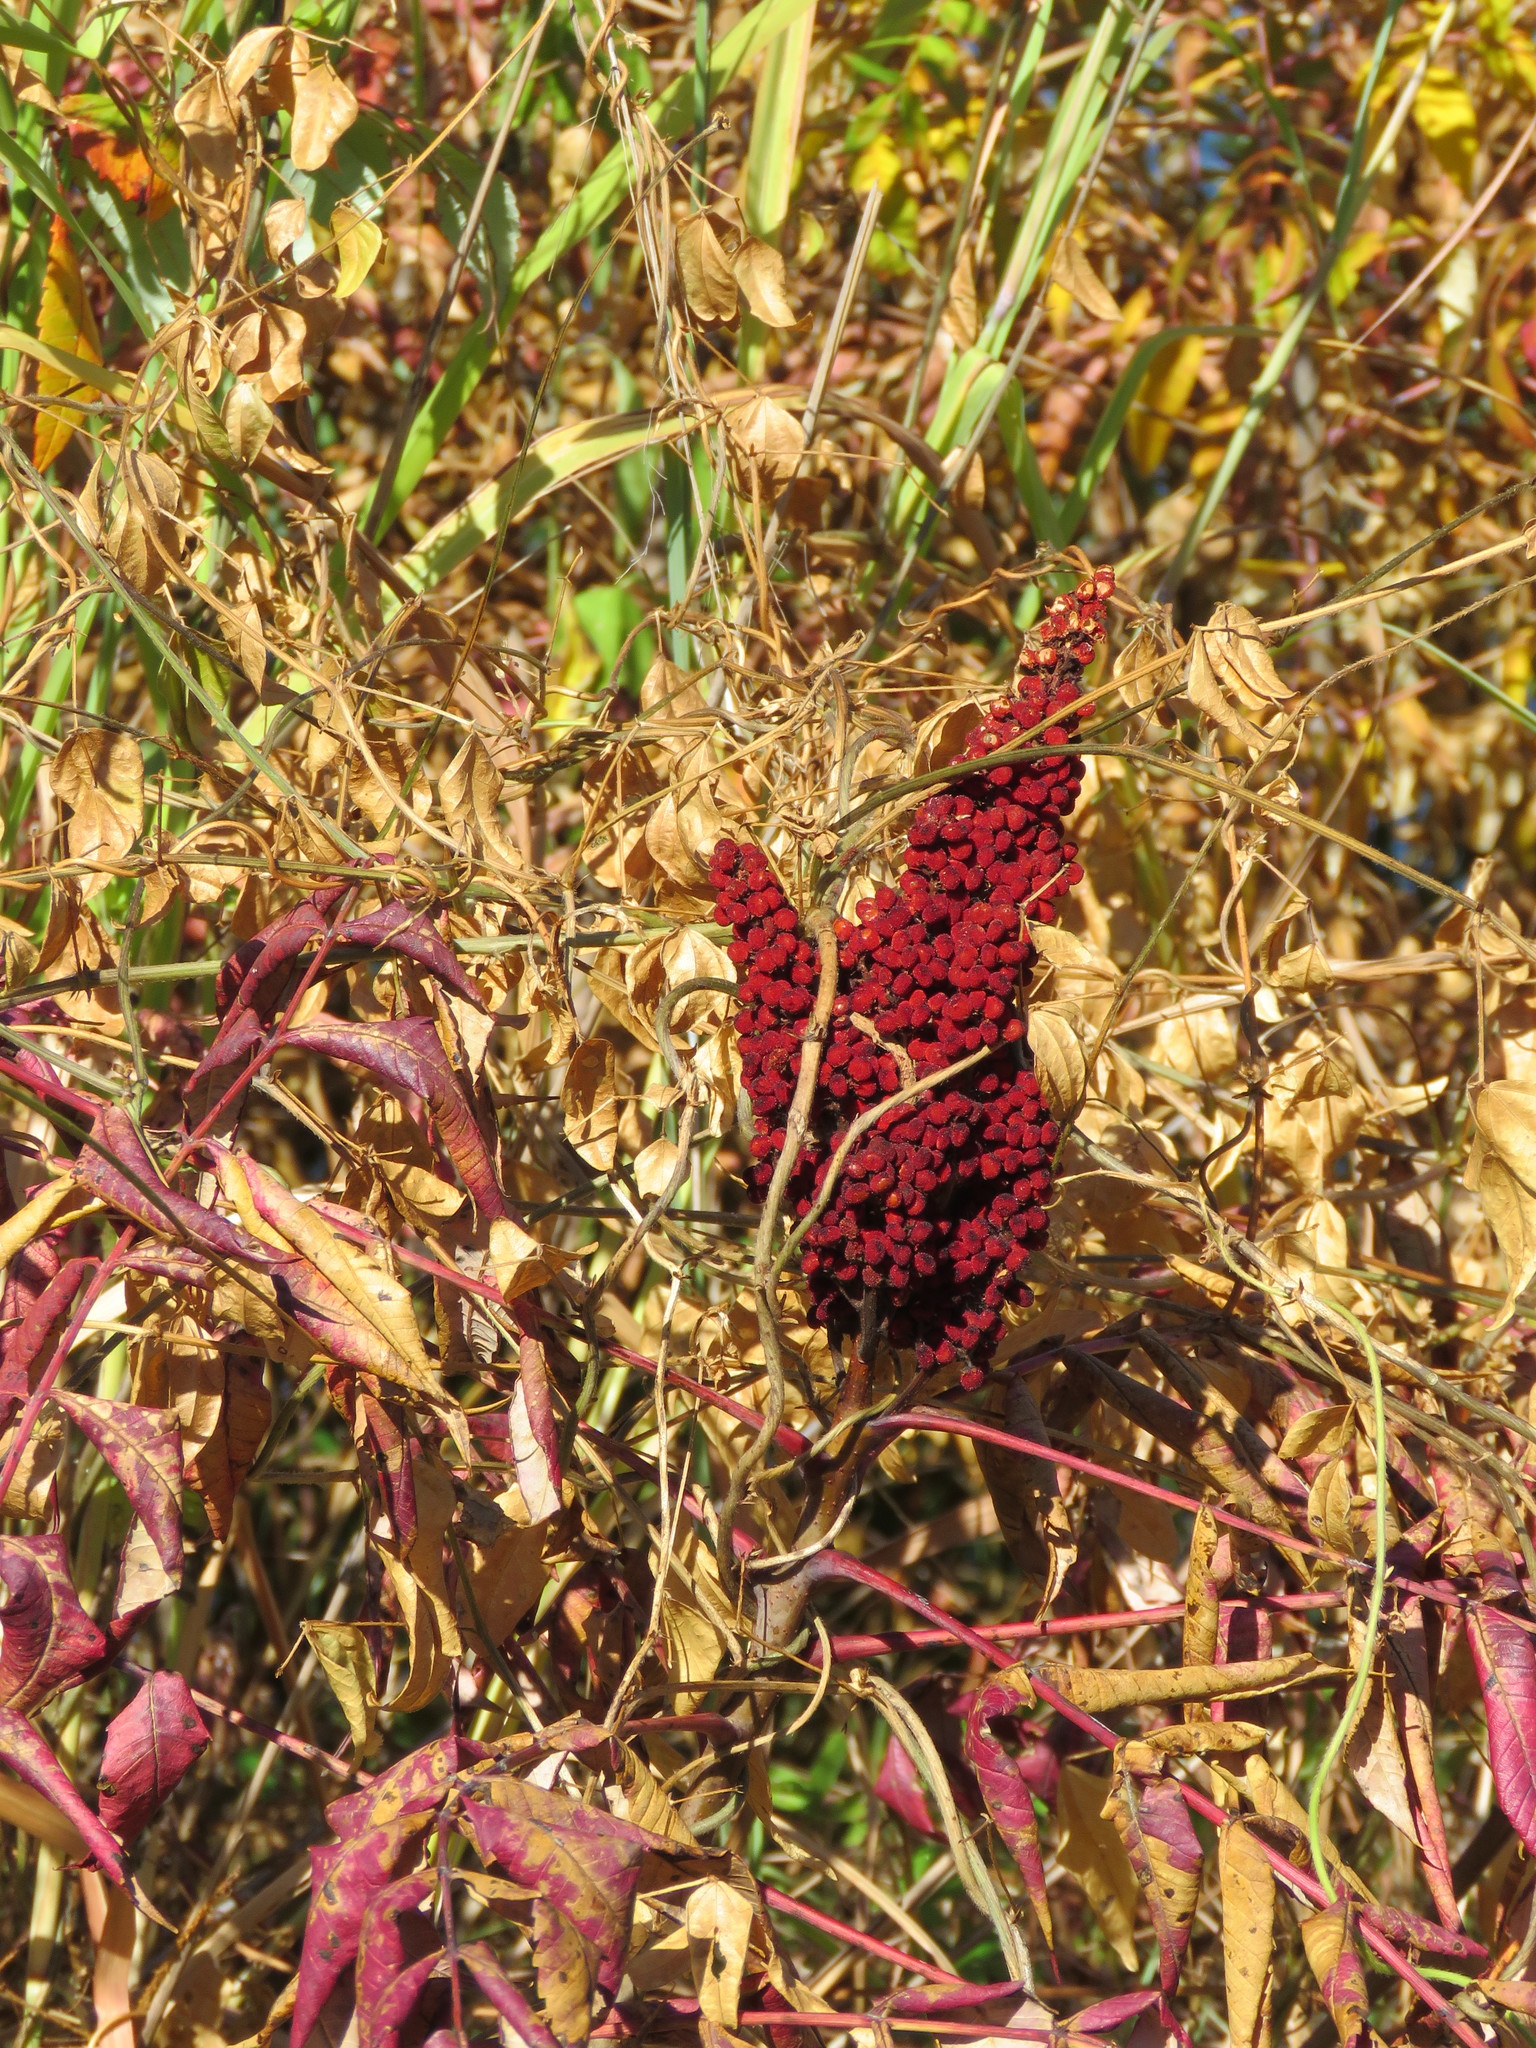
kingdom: Plantae
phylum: Tracheophyta
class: Magnoliopsida
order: Sapindales
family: Anacardiaceae
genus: Rhus
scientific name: Rhus glabra
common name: Scarlet sumac
